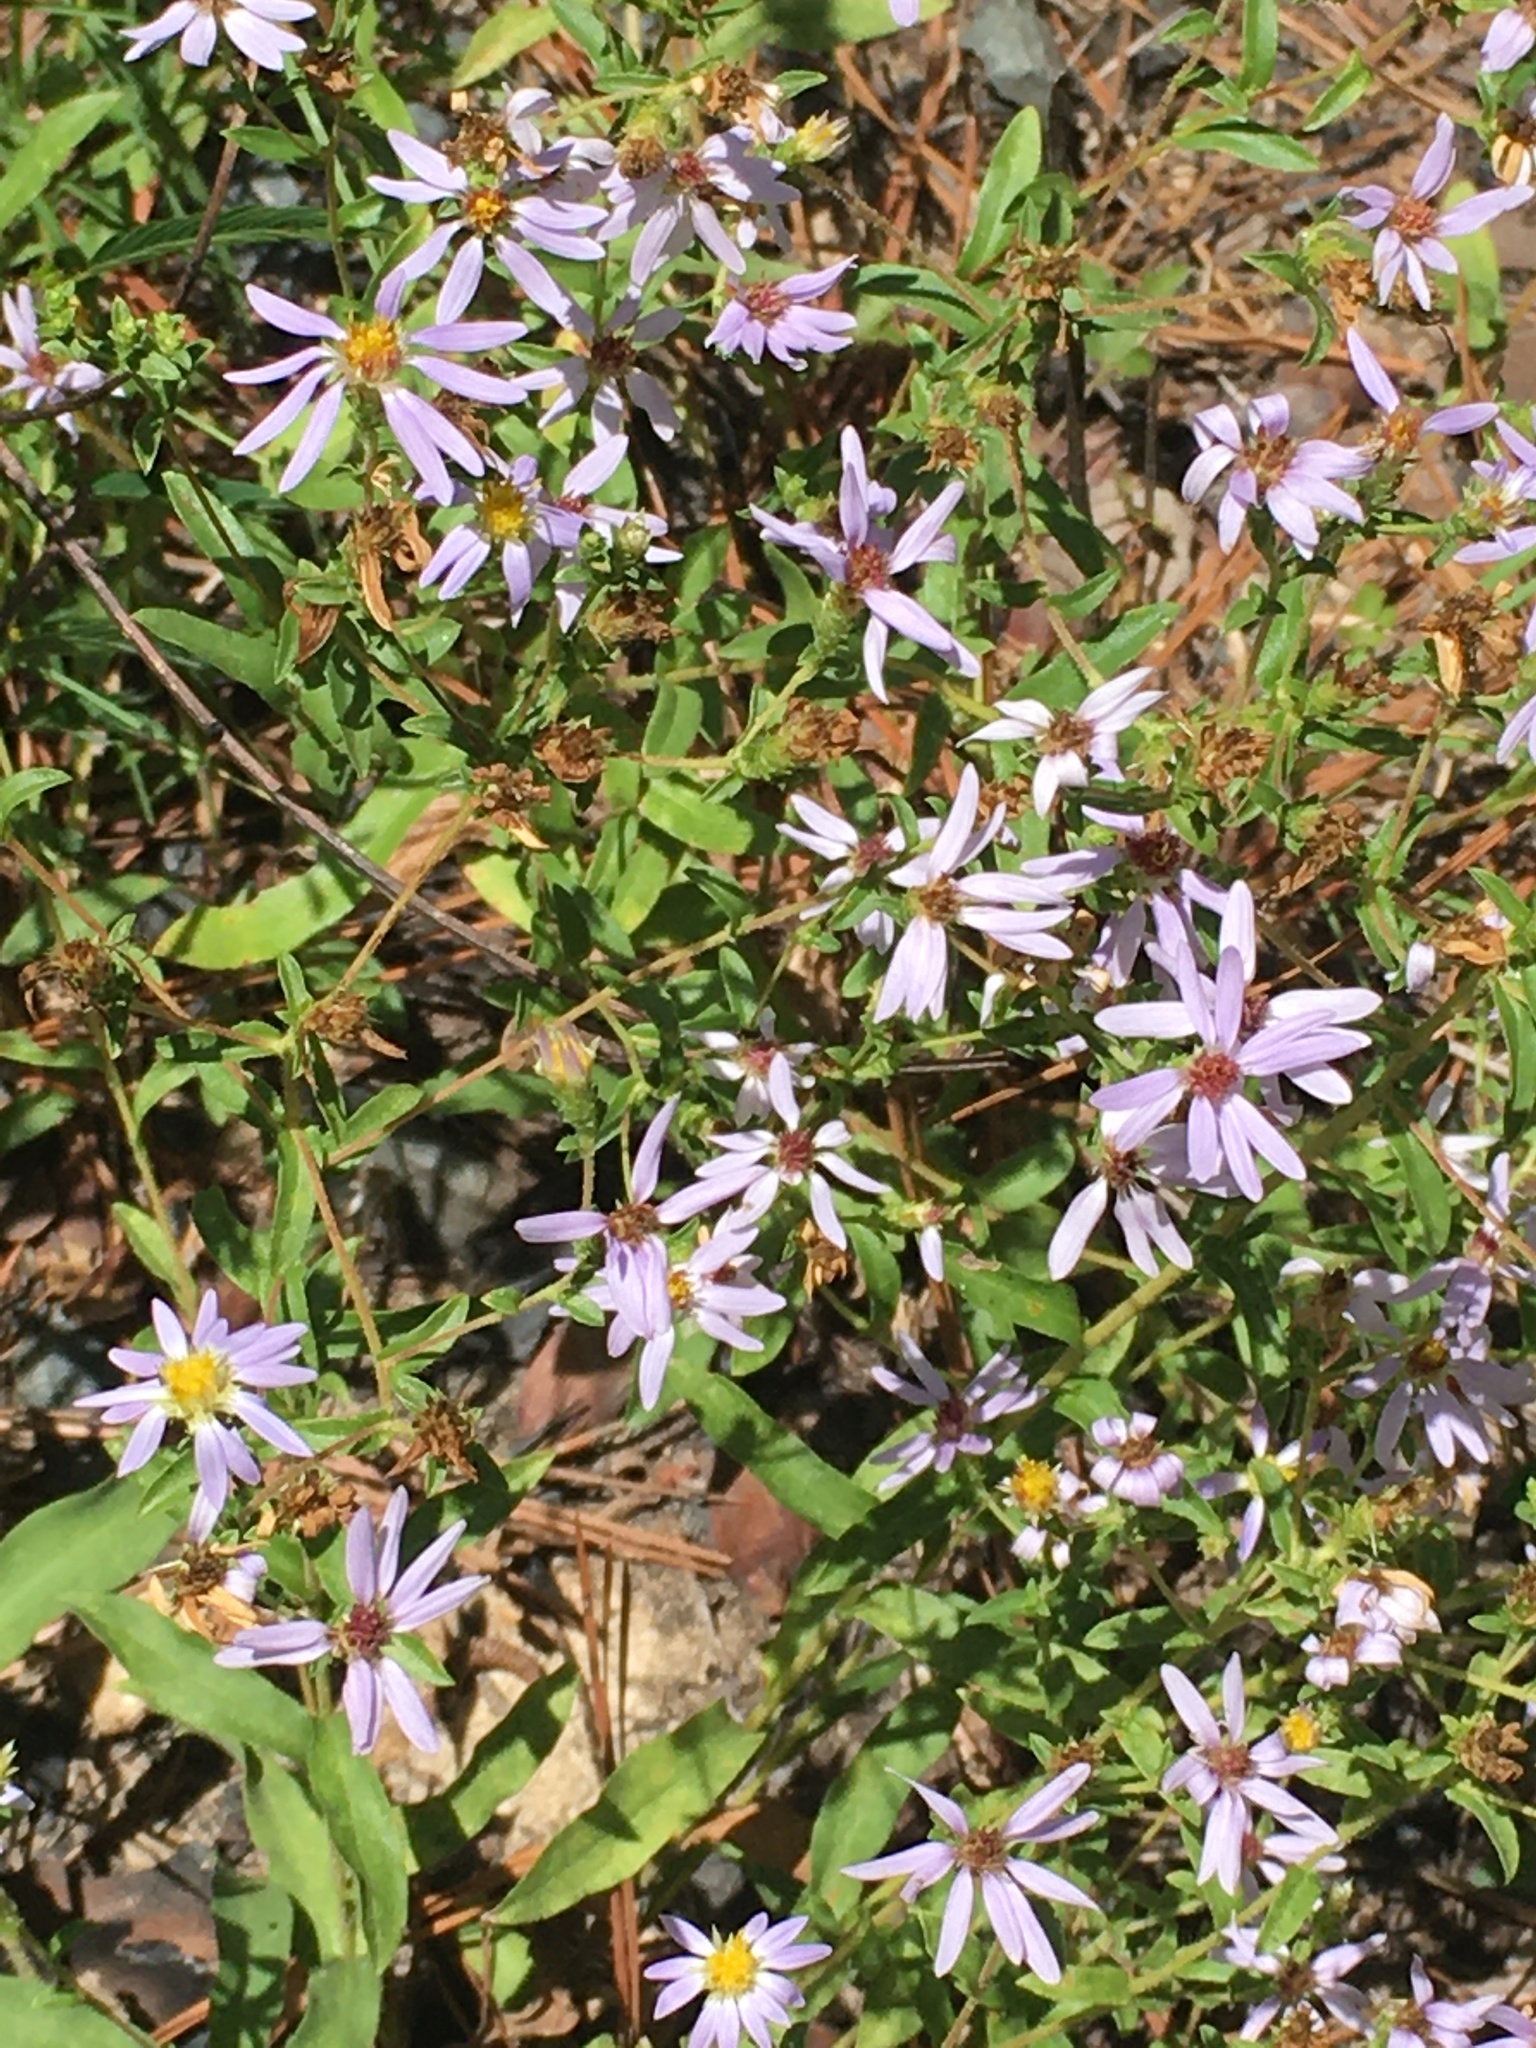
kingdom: Plantae
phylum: Tracheophyta
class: Magnoliopsida
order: Asterales
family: Asteraceae
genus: Eurybia
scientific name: Eurybia compacta
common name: Slender aster
